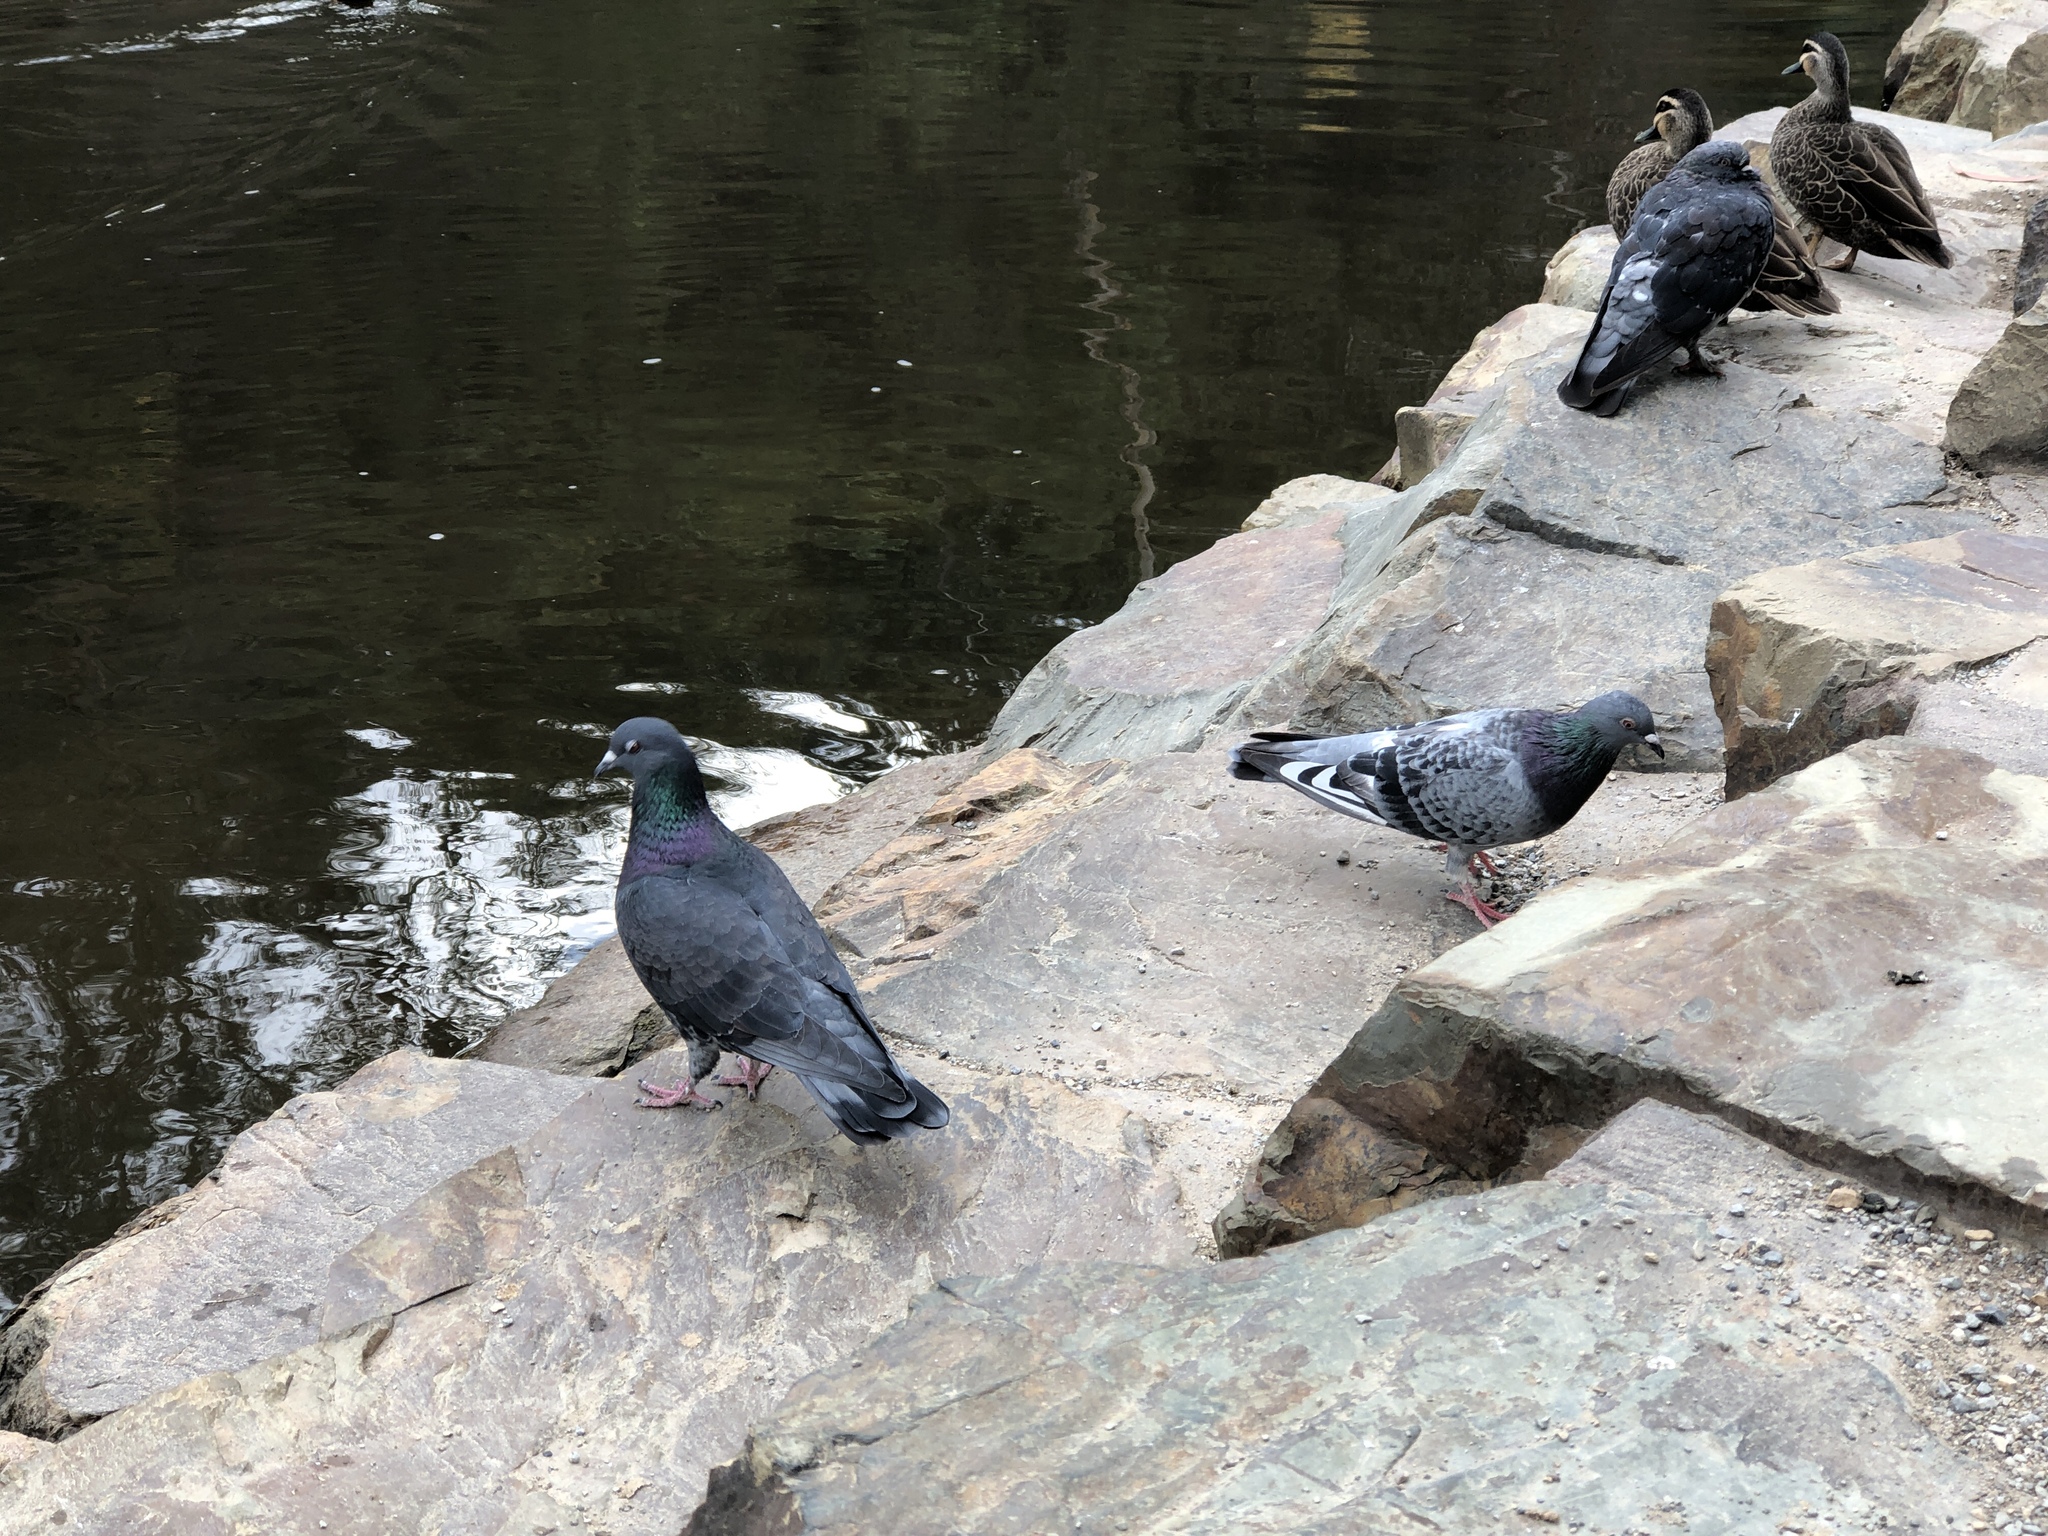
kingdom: Animalia
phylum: Chordata
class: Aves
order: Columbiformes
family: Columbidae
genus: Columba
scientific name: Columba livia
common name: Rock pigeon
